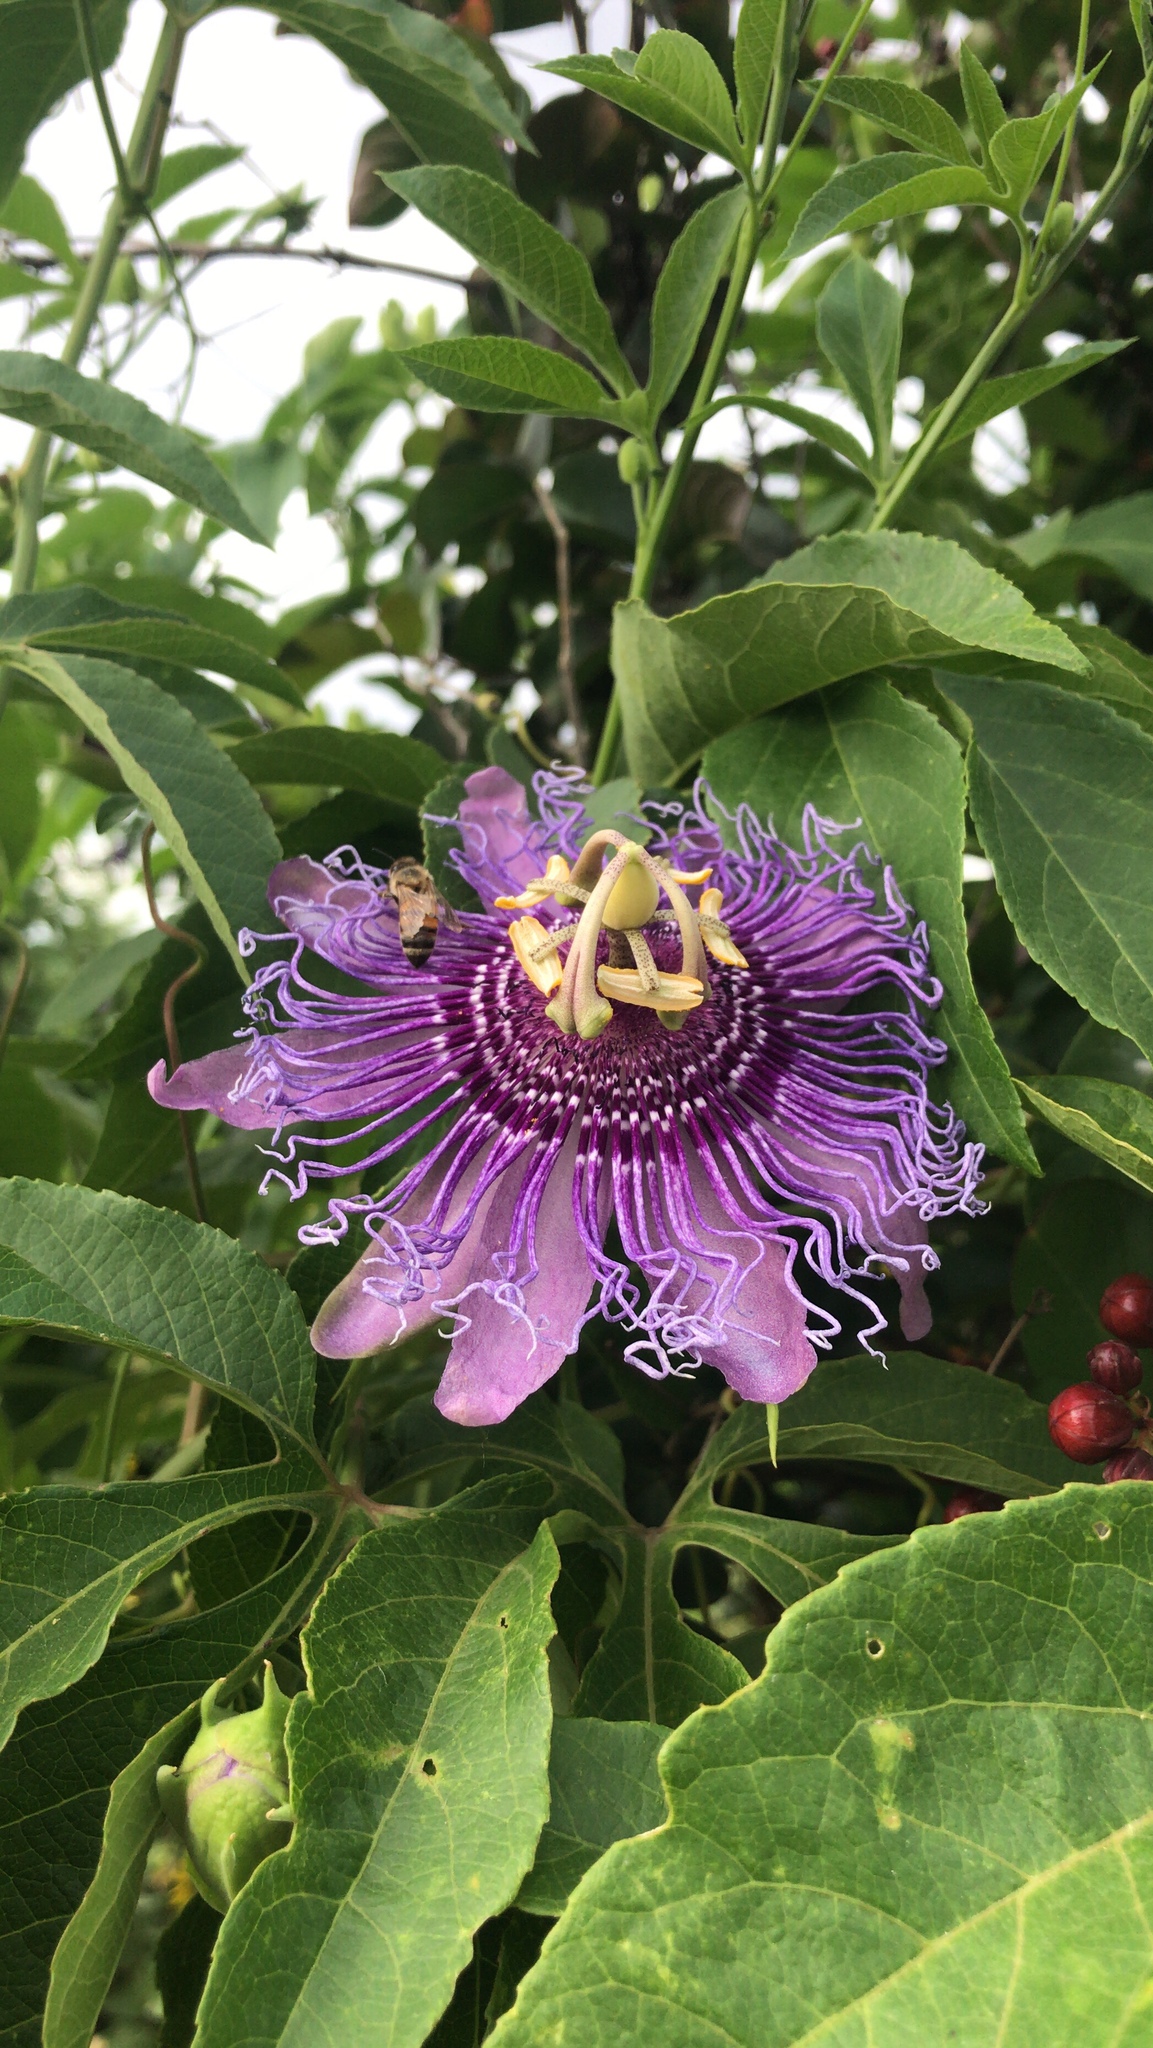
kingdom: Plantae
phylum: Tracheophyta
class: Magnoliopsida
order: Malpighiales
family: Passifloraceae
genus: Passiflora
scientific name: Passiflora
